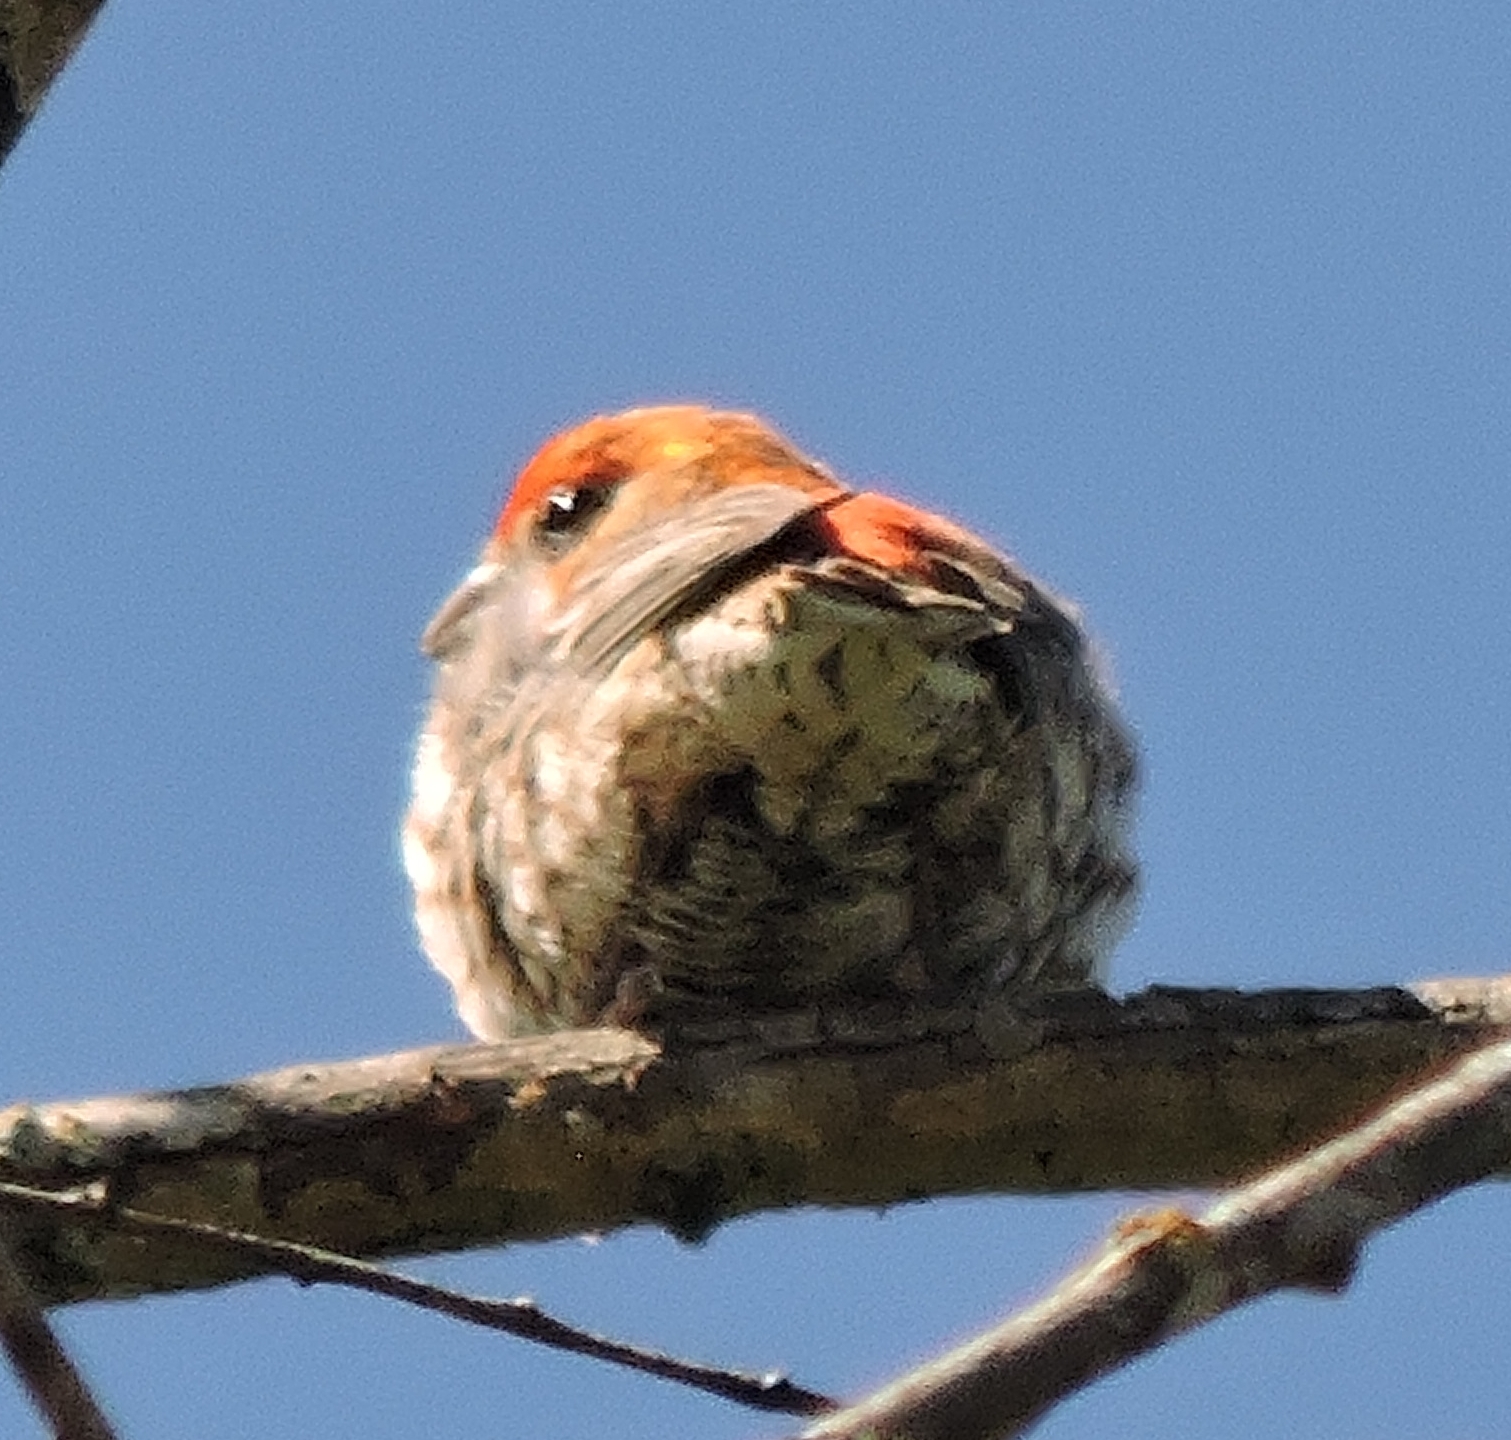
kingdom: Animalia
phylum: Chordata
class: Aves
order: Passeriformes
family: Fringillidae
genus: Haemorhous
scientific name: Haemorhous mexicanus
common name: House finch
